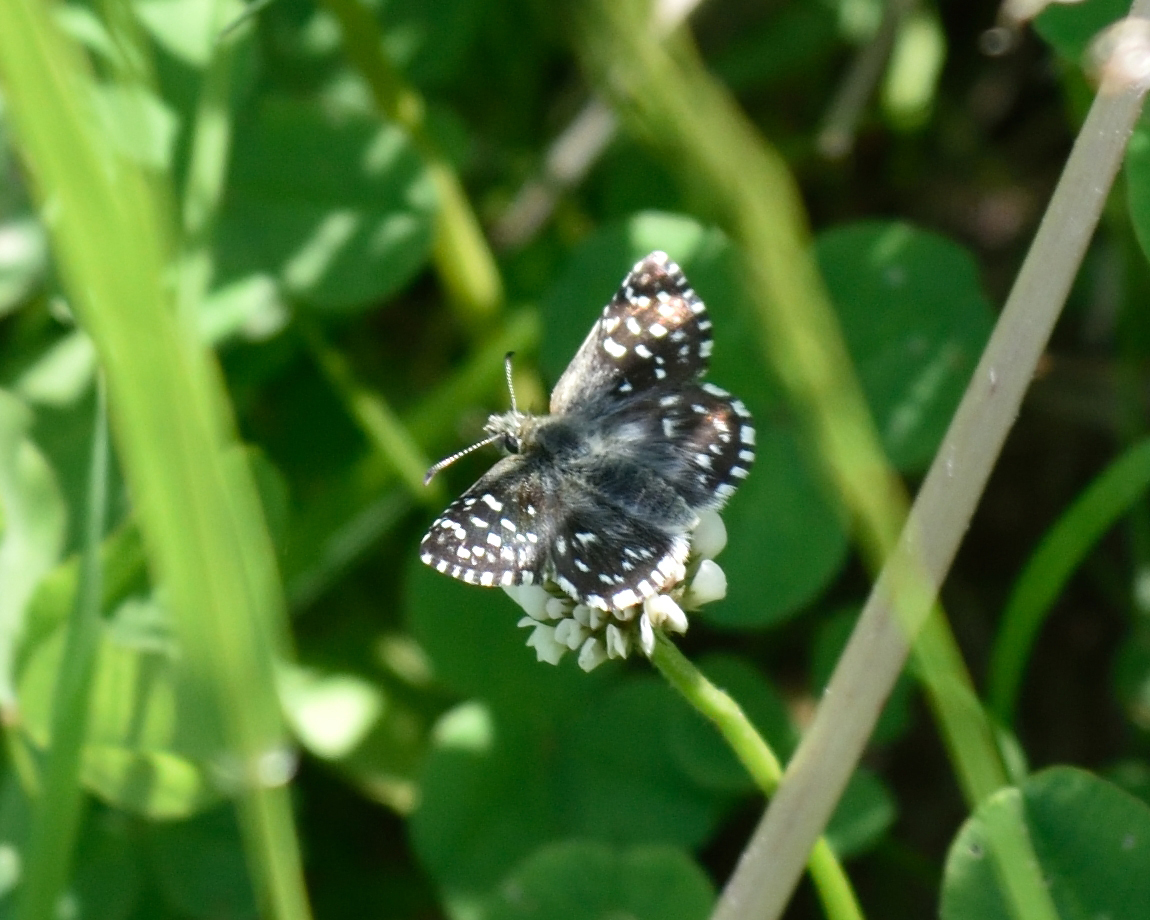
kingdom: Animalia
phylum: Arthropoda
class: Insecta
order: Lepidoptera
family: Hesperiidae
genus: Pyrgus
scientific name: Pyrgus malvae
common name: Grizzled skipper
